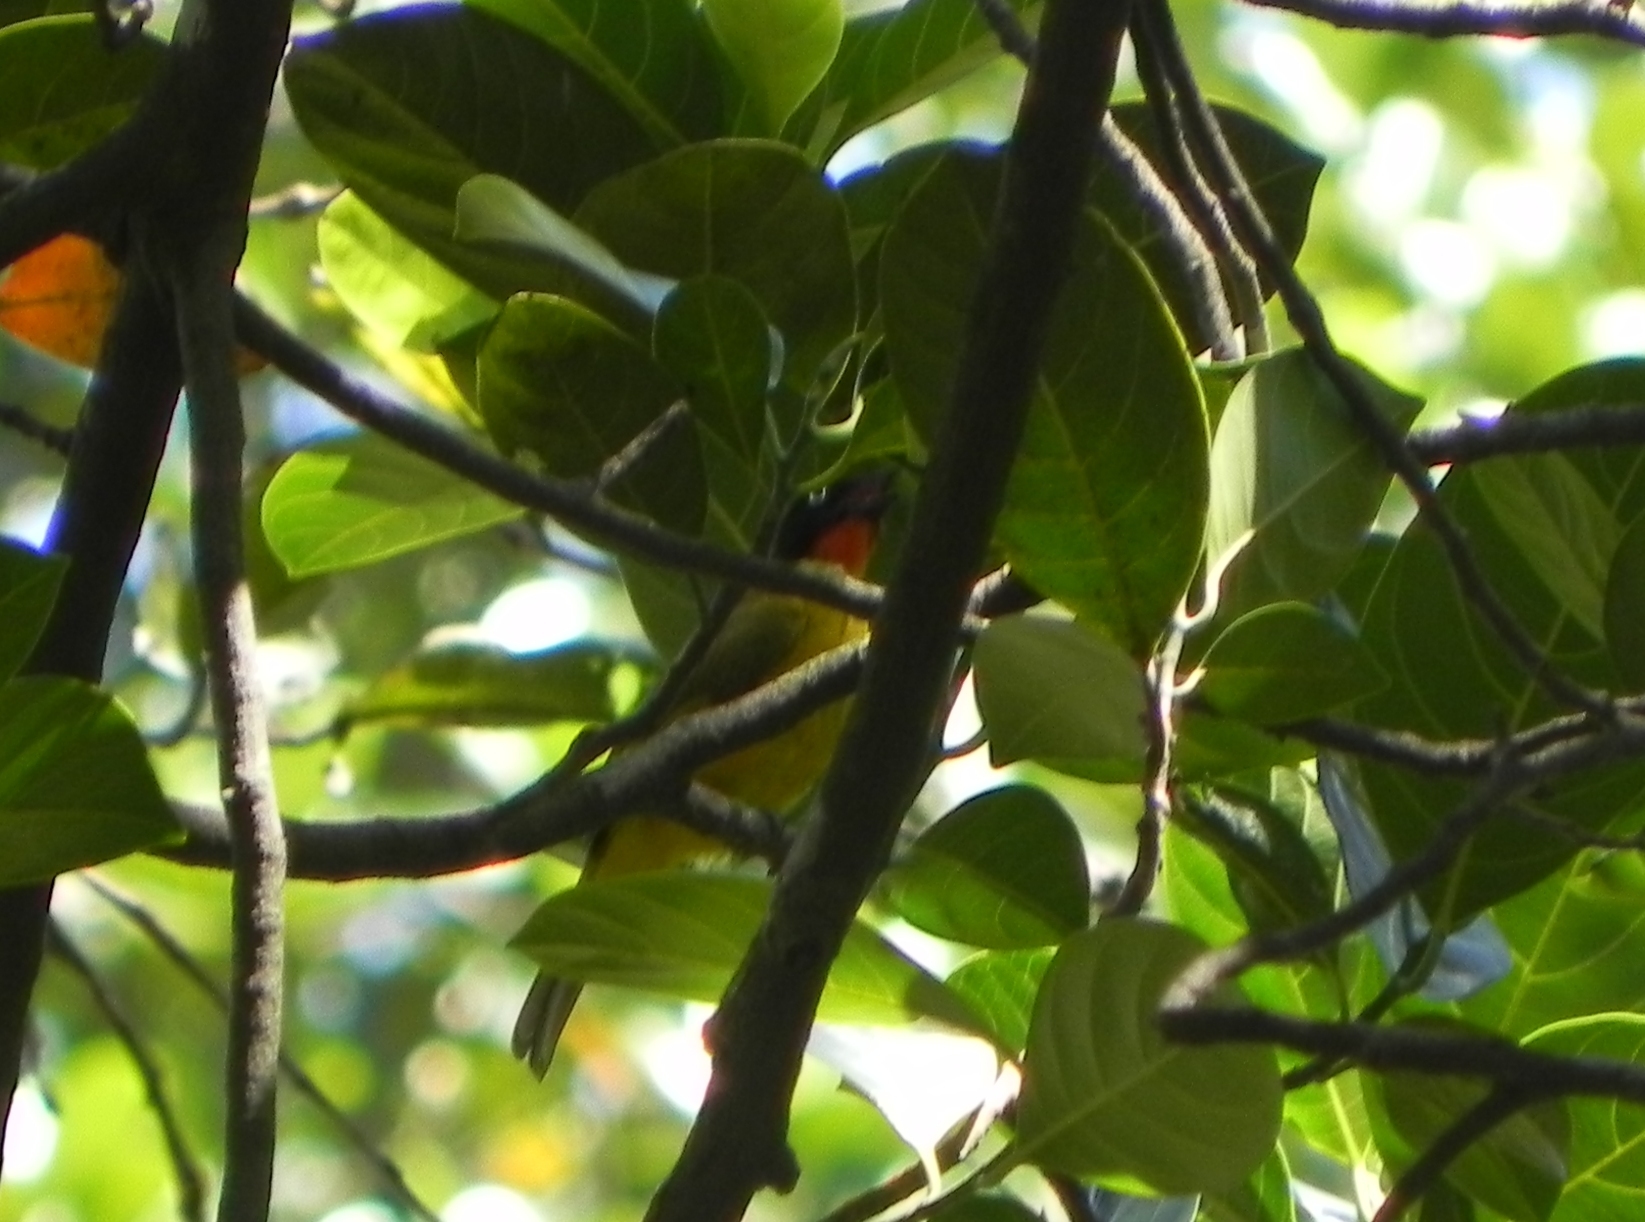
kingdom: Animalia
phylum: Chordata
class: Aves
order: Passeriformes
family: Pycnonotidae
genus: Pycnonotus
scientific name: Pycnonotus gularis
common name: Flame-throated bulbul
